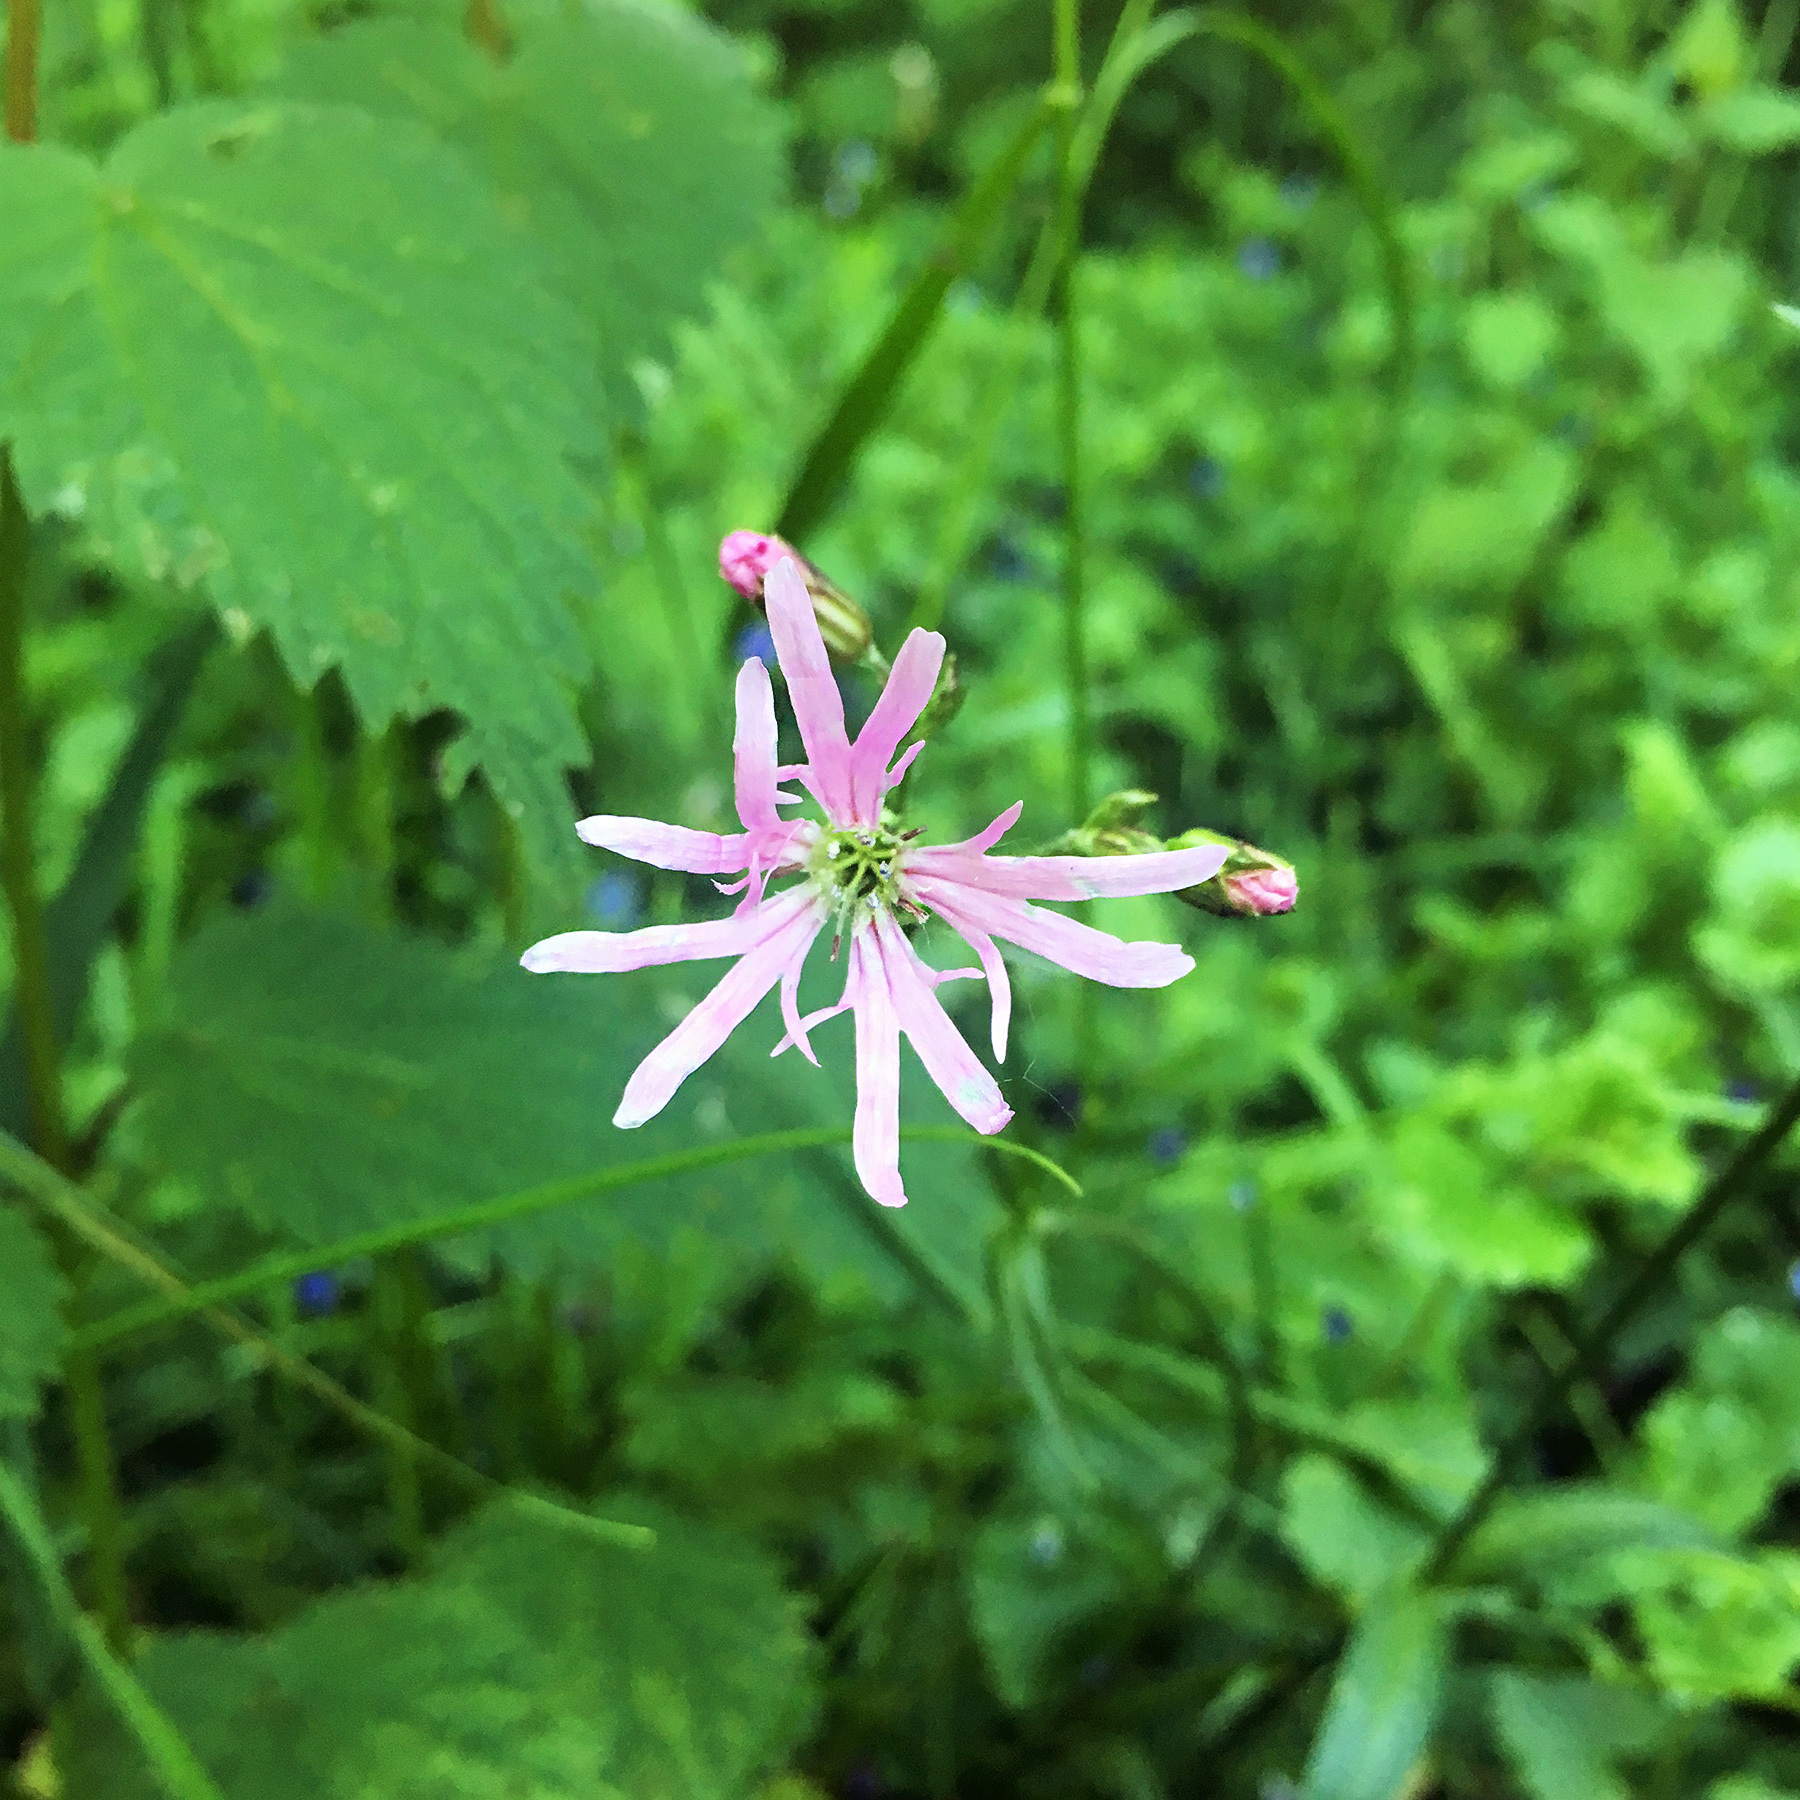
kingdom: Plantae
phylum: Tracheophyta
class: Magnoliopsida
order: Caryophyllales
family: Caryophyllaceae
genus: Silene
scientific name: Silene flos-cuculi
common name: Ragged-robin
